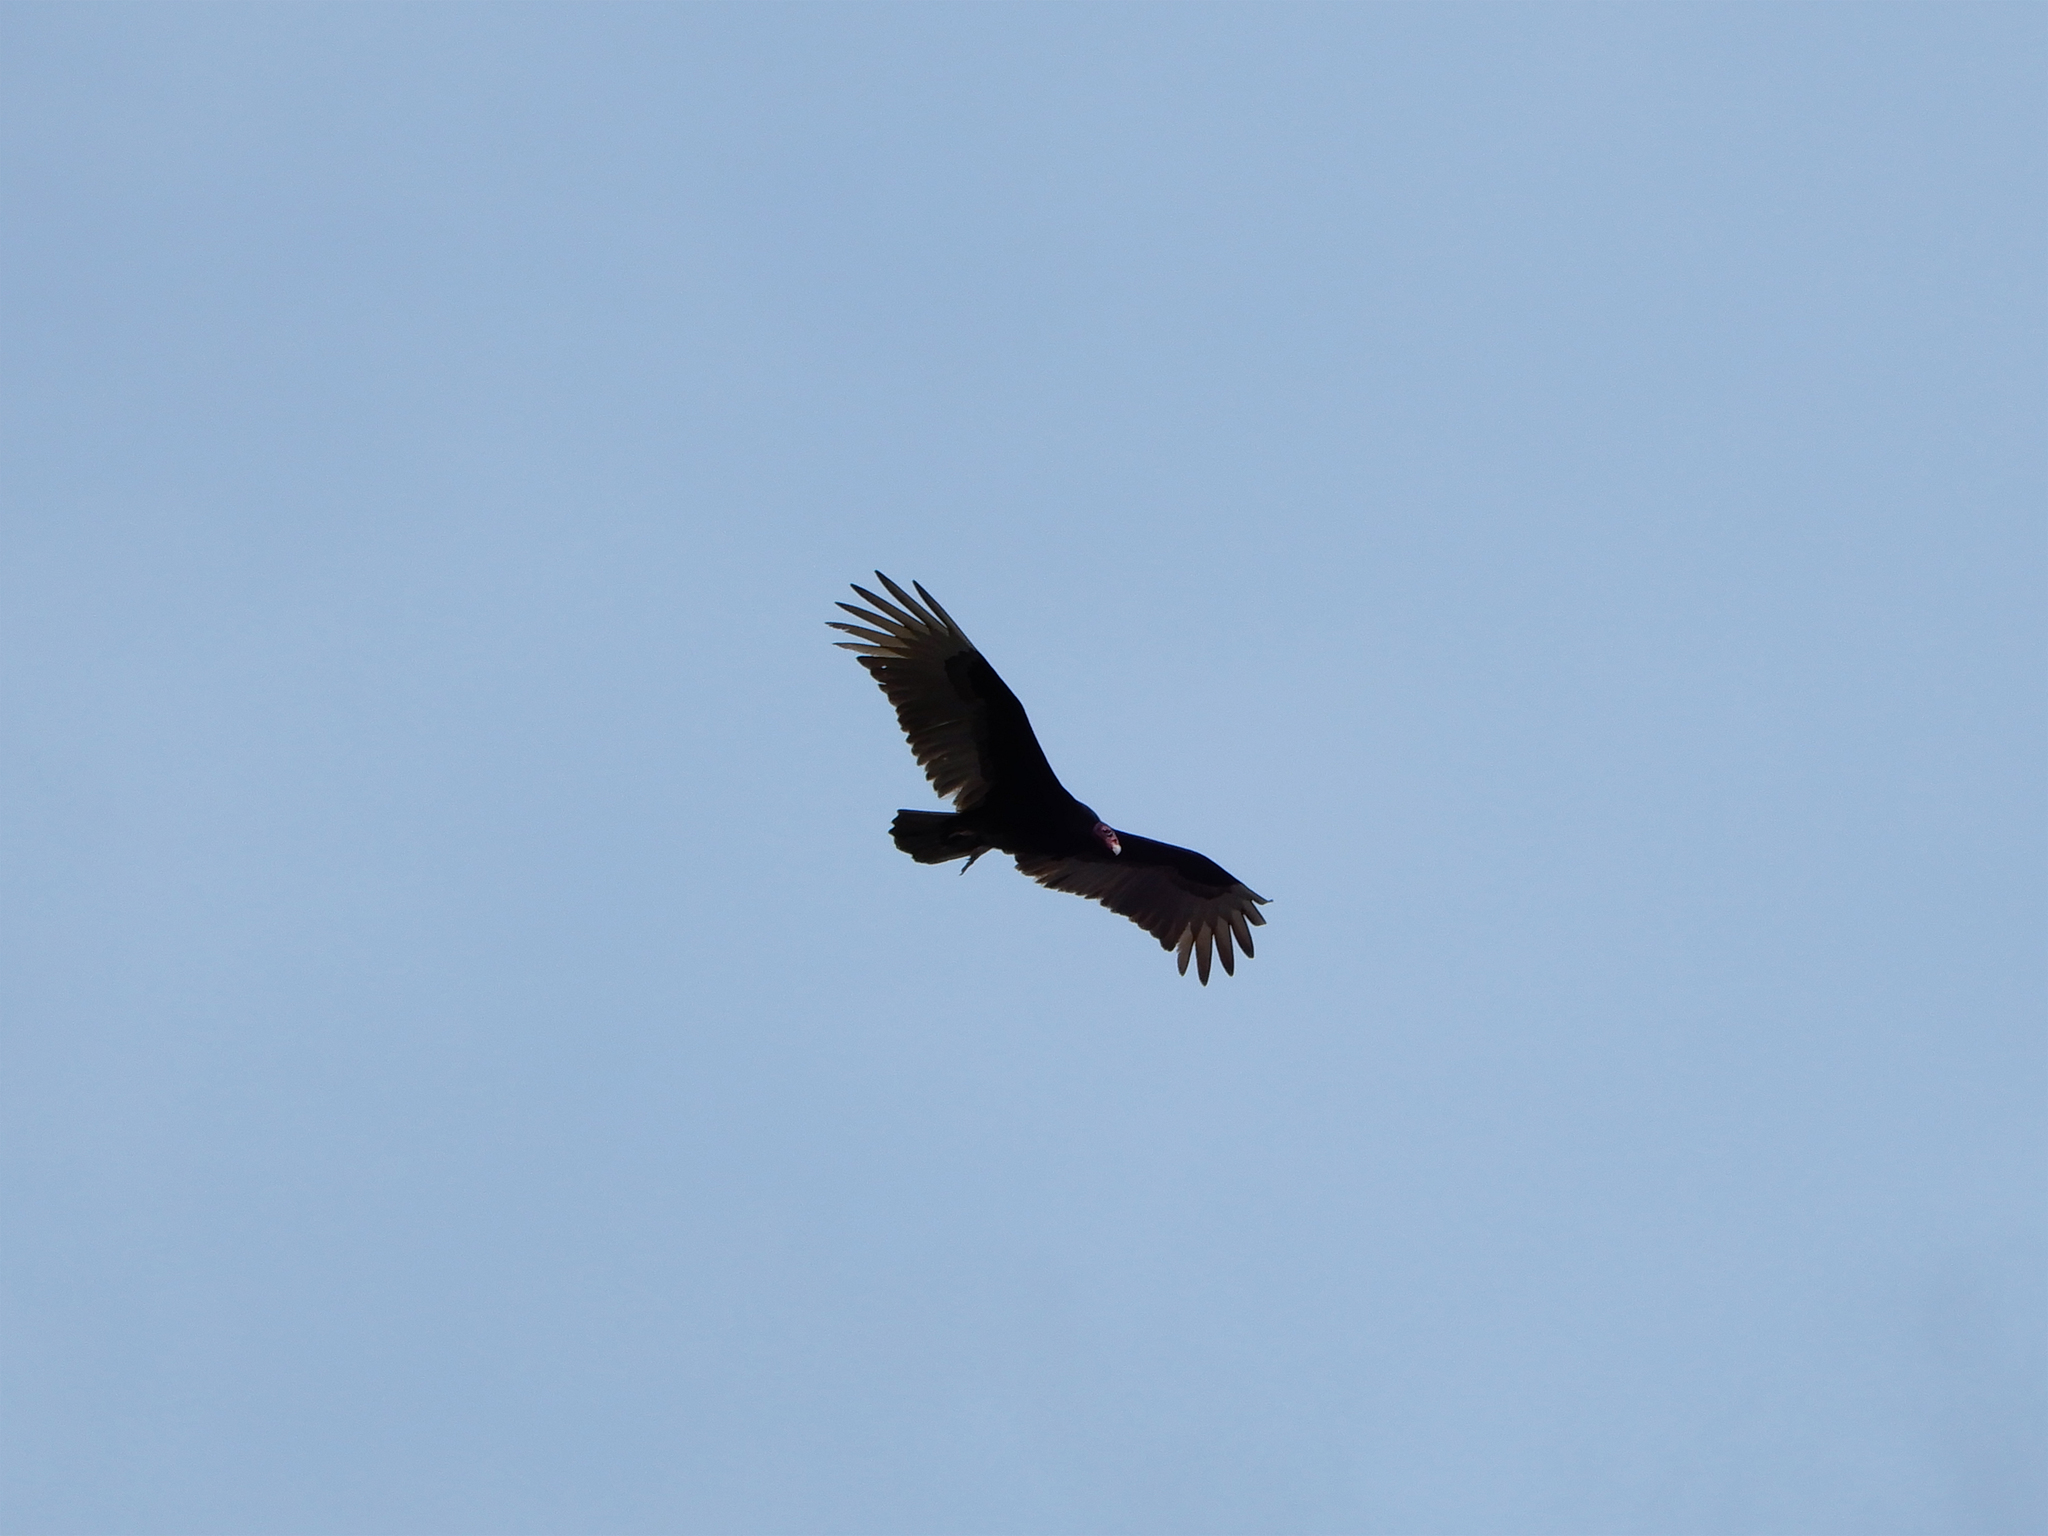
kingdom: Animalia
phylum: Chordata
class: Aves
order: Accipitriformes
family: Cathartidae
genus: Cathartes
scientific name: Cathartes aura
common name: Turkey vulture
